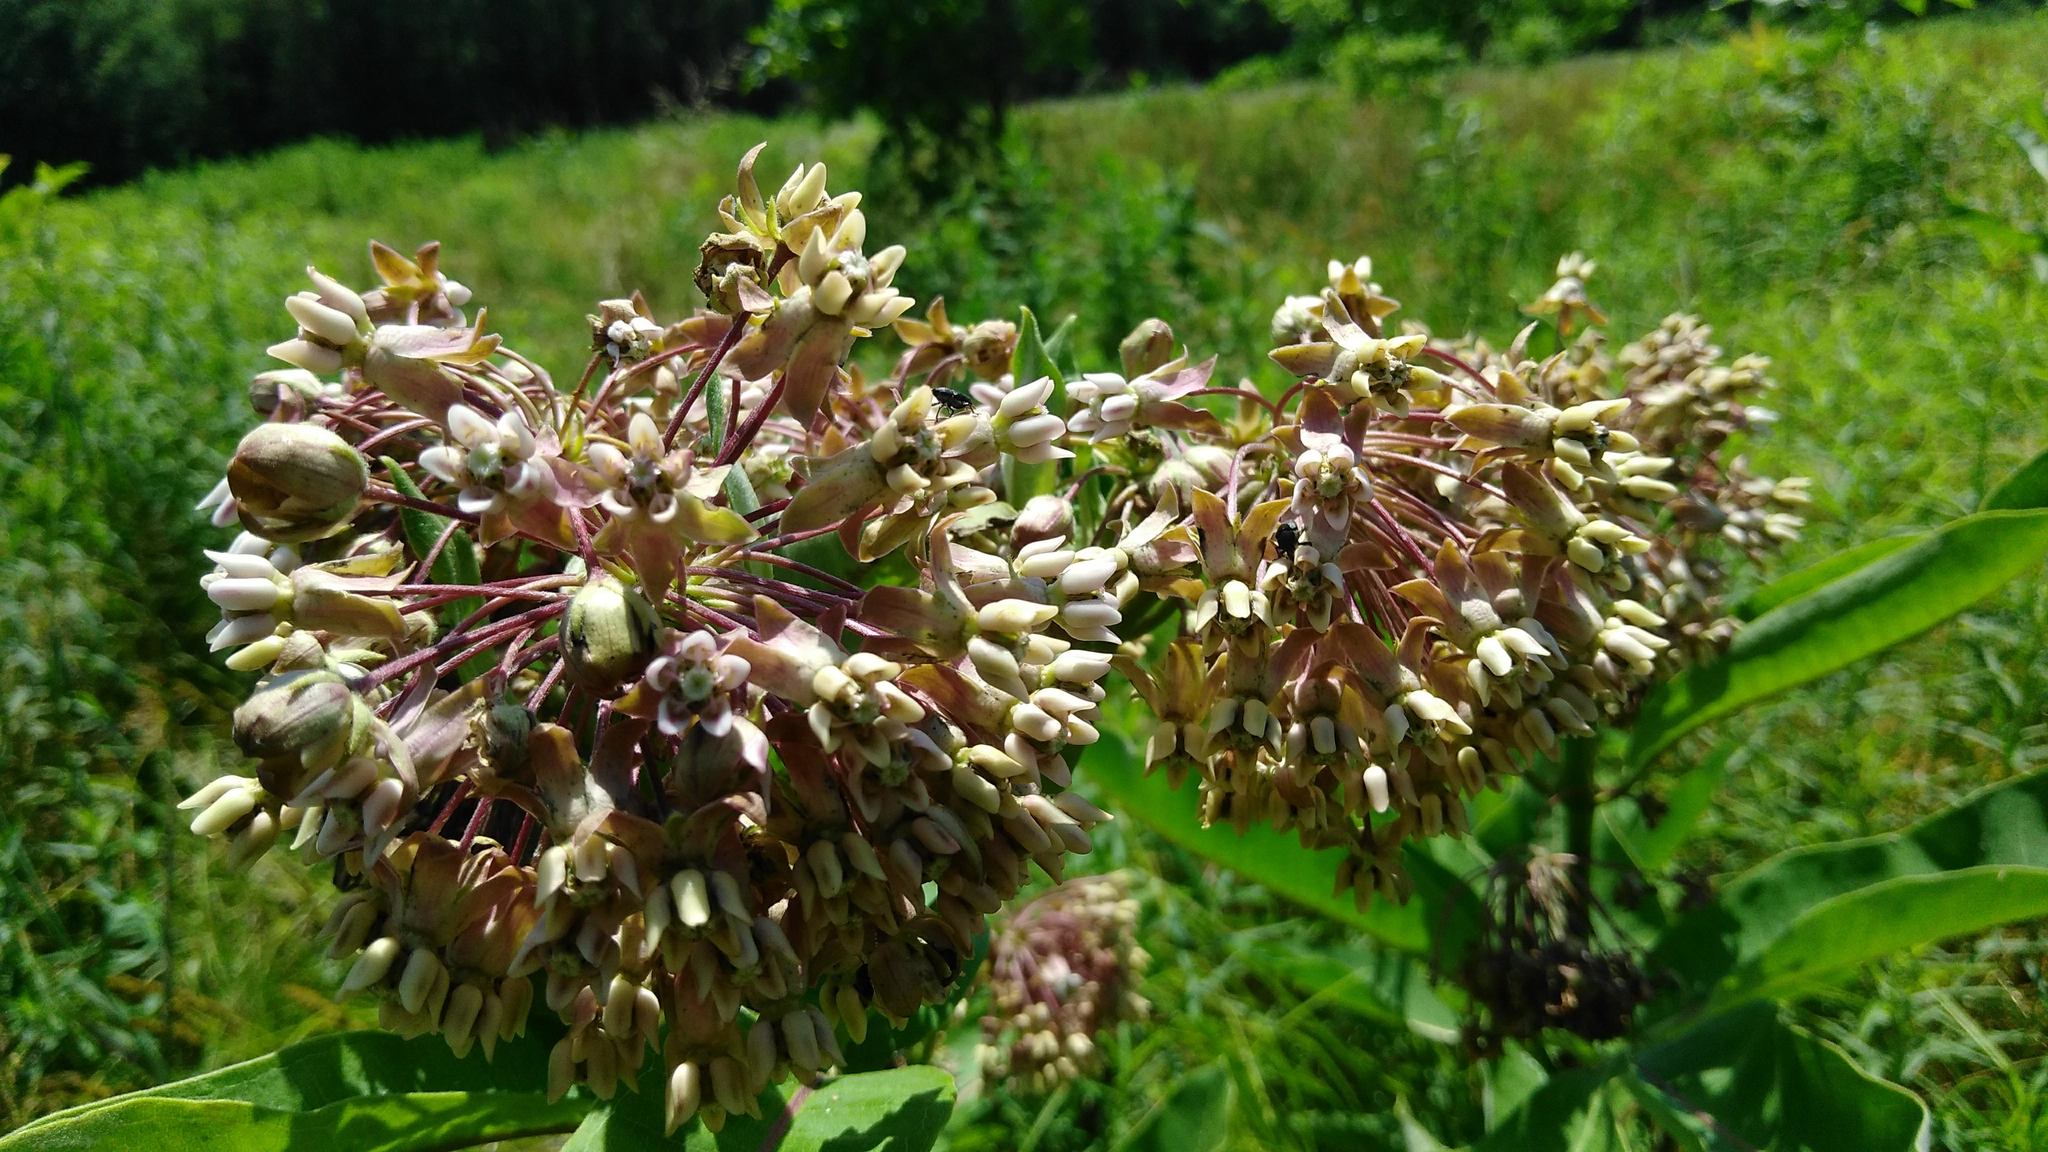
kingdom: Plantae
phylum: Tracheophyta
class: Magnoliopsida
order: Gentianales
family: Apocynaceae
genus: Asclepias
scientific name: Asclepias syriaca
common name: Common milkweed
